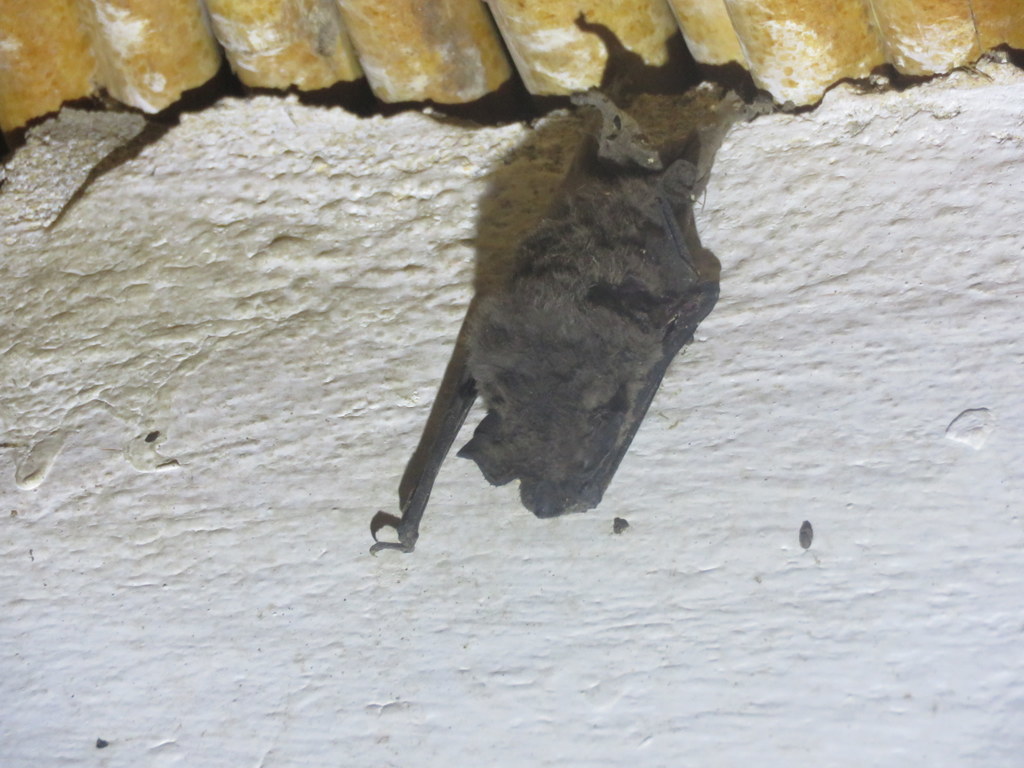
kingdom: Animalia
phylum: Chordata
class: Mammalia
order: Chiroptera
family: Molossidae
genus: Tadarida
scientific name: Tadarida brasiliensis
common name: Mexican free-tailed bat
